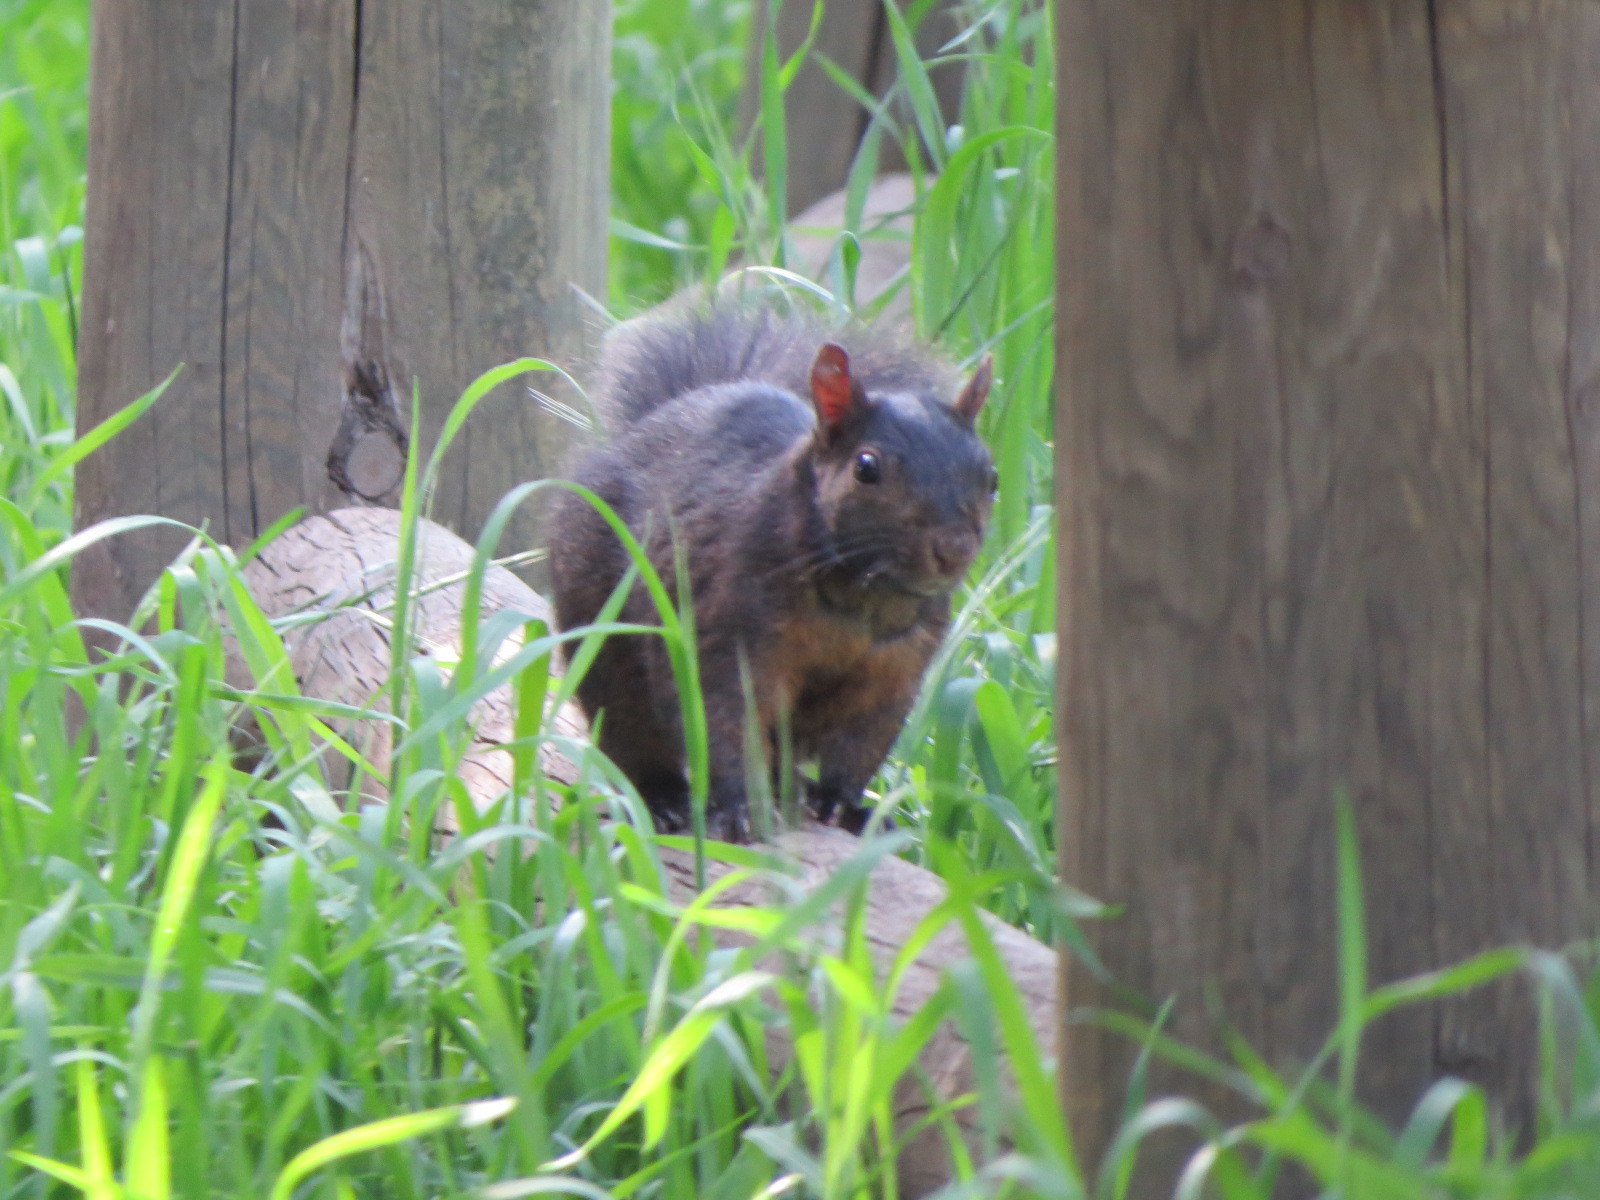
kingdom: Animalia
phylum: Chordata
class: Mammalia
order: Rodentia
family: Sciuridae
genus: Sciurus
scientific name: Sciurus carolinensis
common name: Eastern gray squirrel
